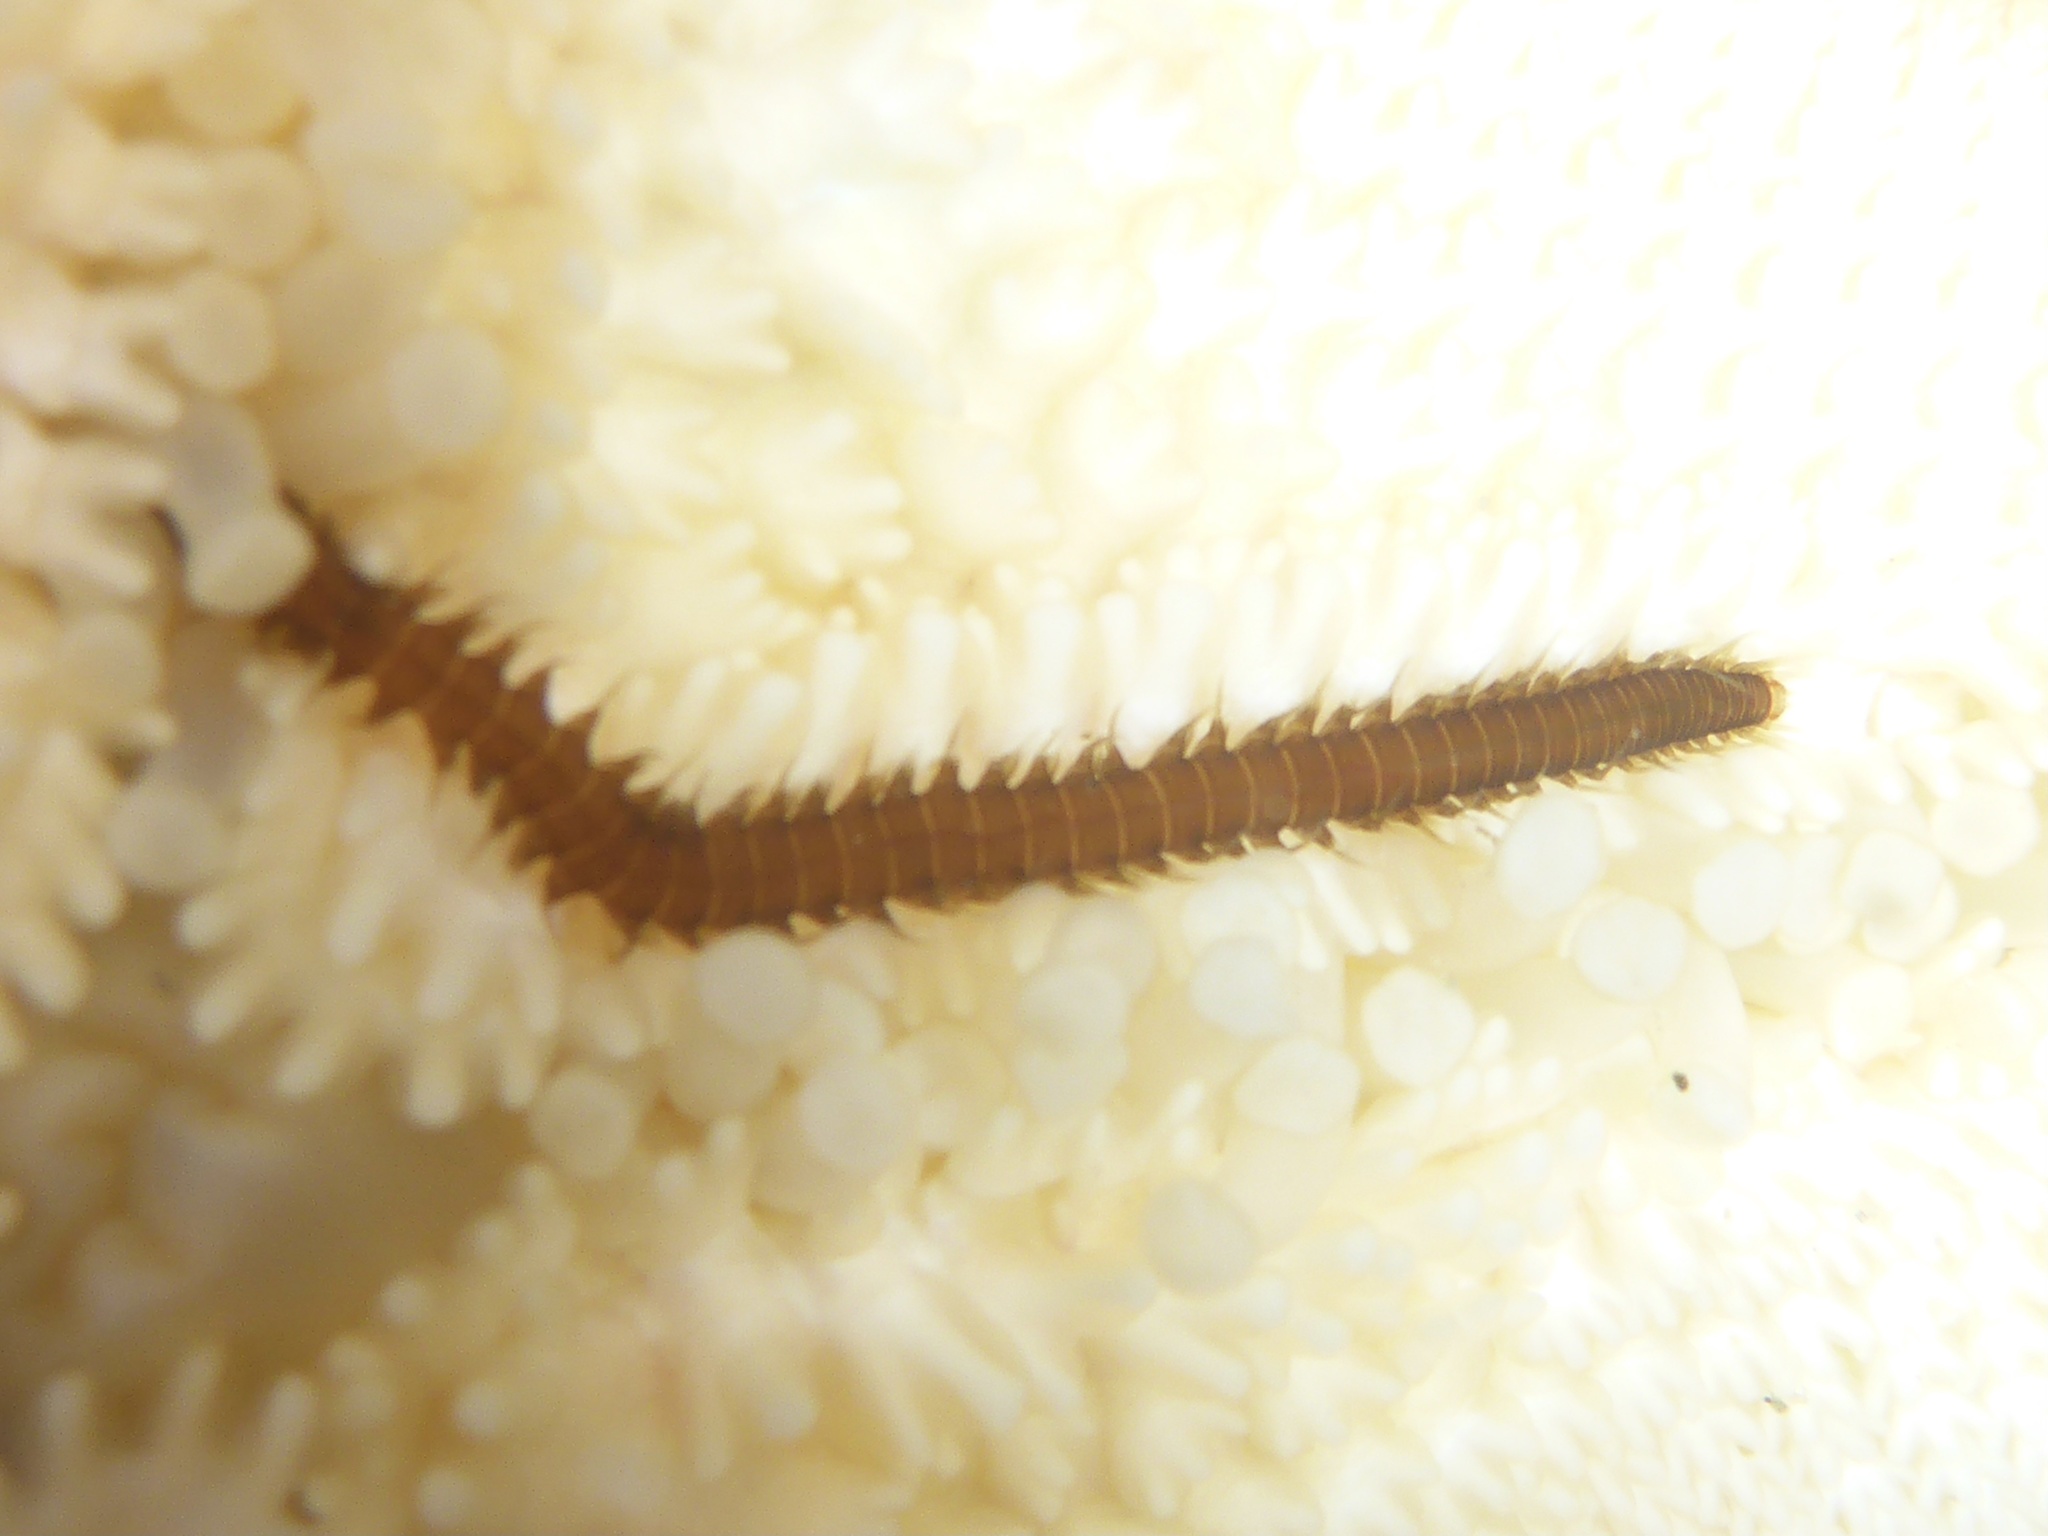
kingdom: Animalia
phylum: Annelida
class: Polychaeta
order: Phyllodocida
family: Hesionidae
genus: Oxydromus
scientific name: Oxydromus pugettensis
